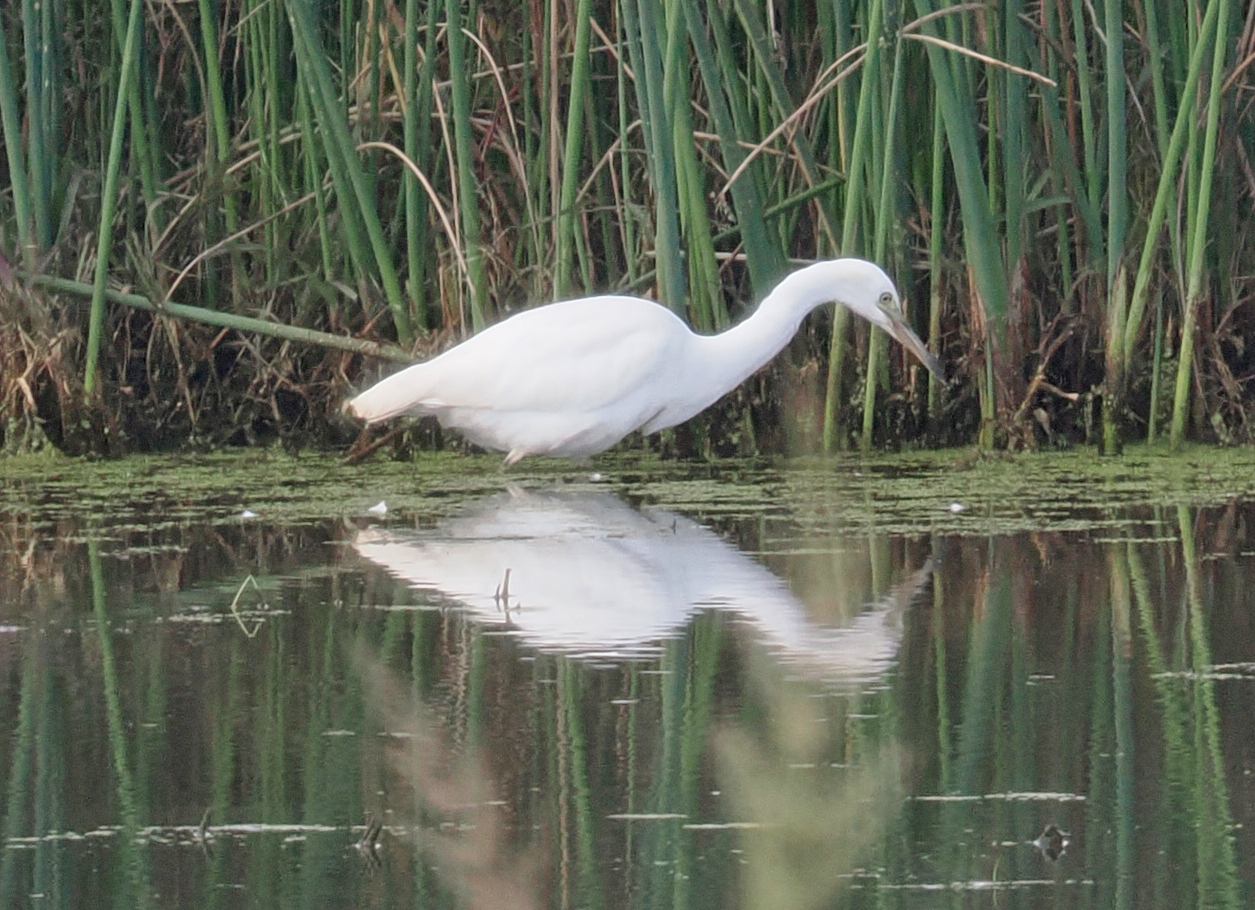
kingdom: Animalia
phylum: Chordata
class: Aves
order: Pelecaniformes
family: Ardeidae
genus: Egretta
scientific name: Egretta caerulea
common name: Little blue heron
